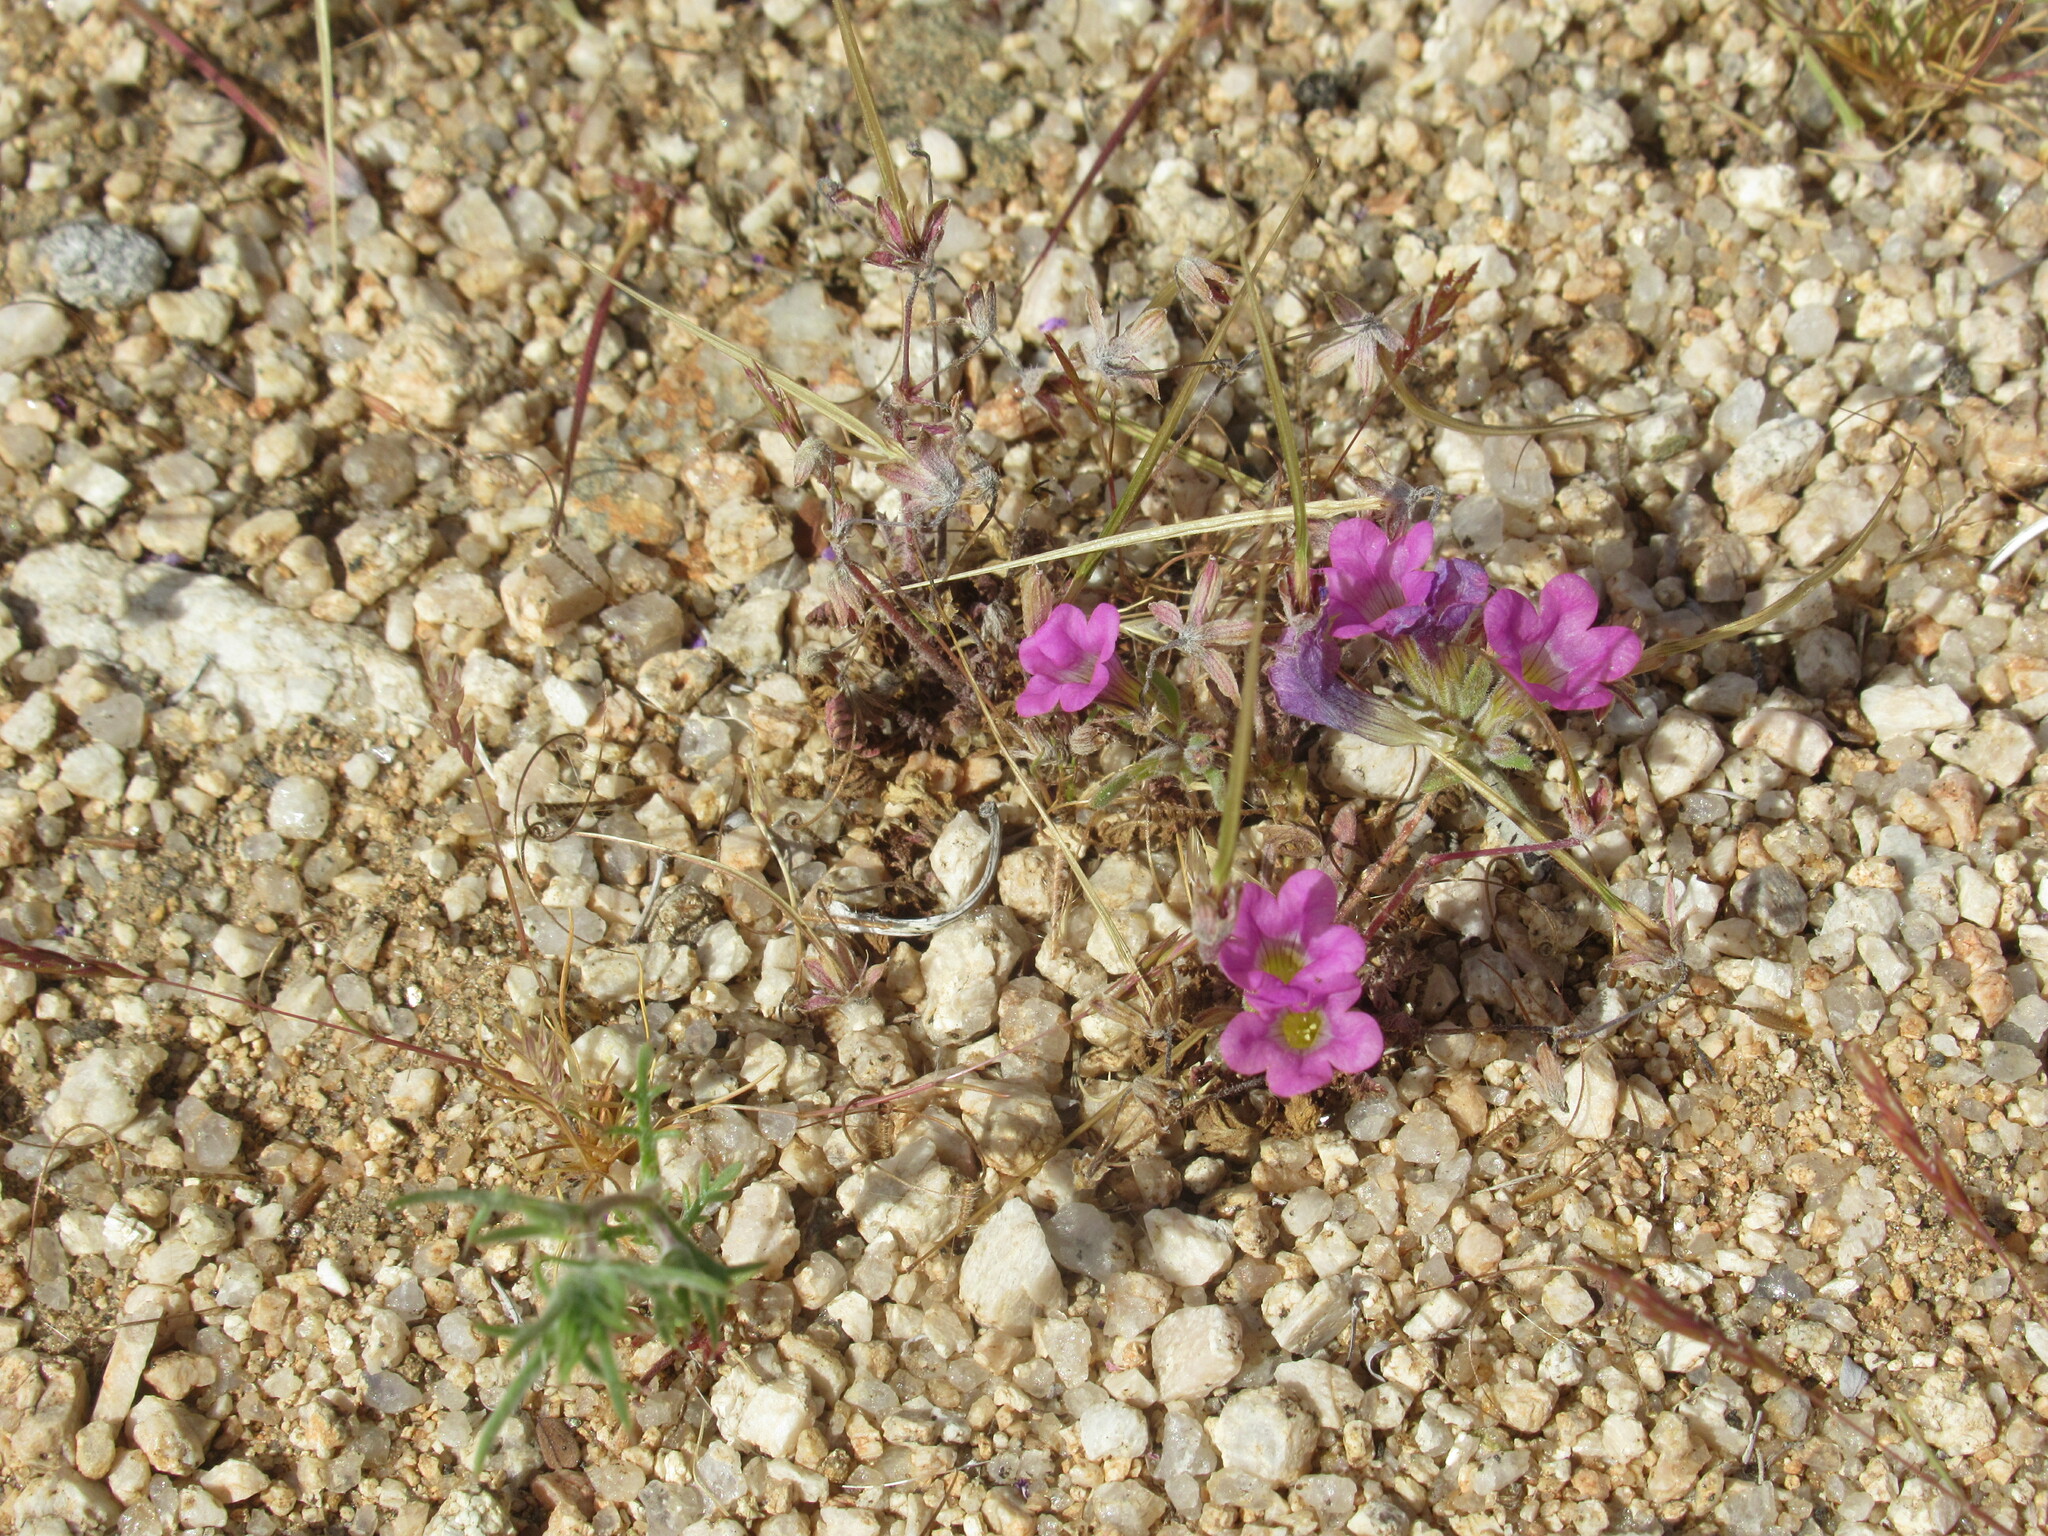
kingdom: Plantae
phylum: Tracheophyta
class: Magnoliopsida
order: Boraginales
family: Namaceae
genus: Nama
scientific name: Nama demissa
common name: Leafy nama
